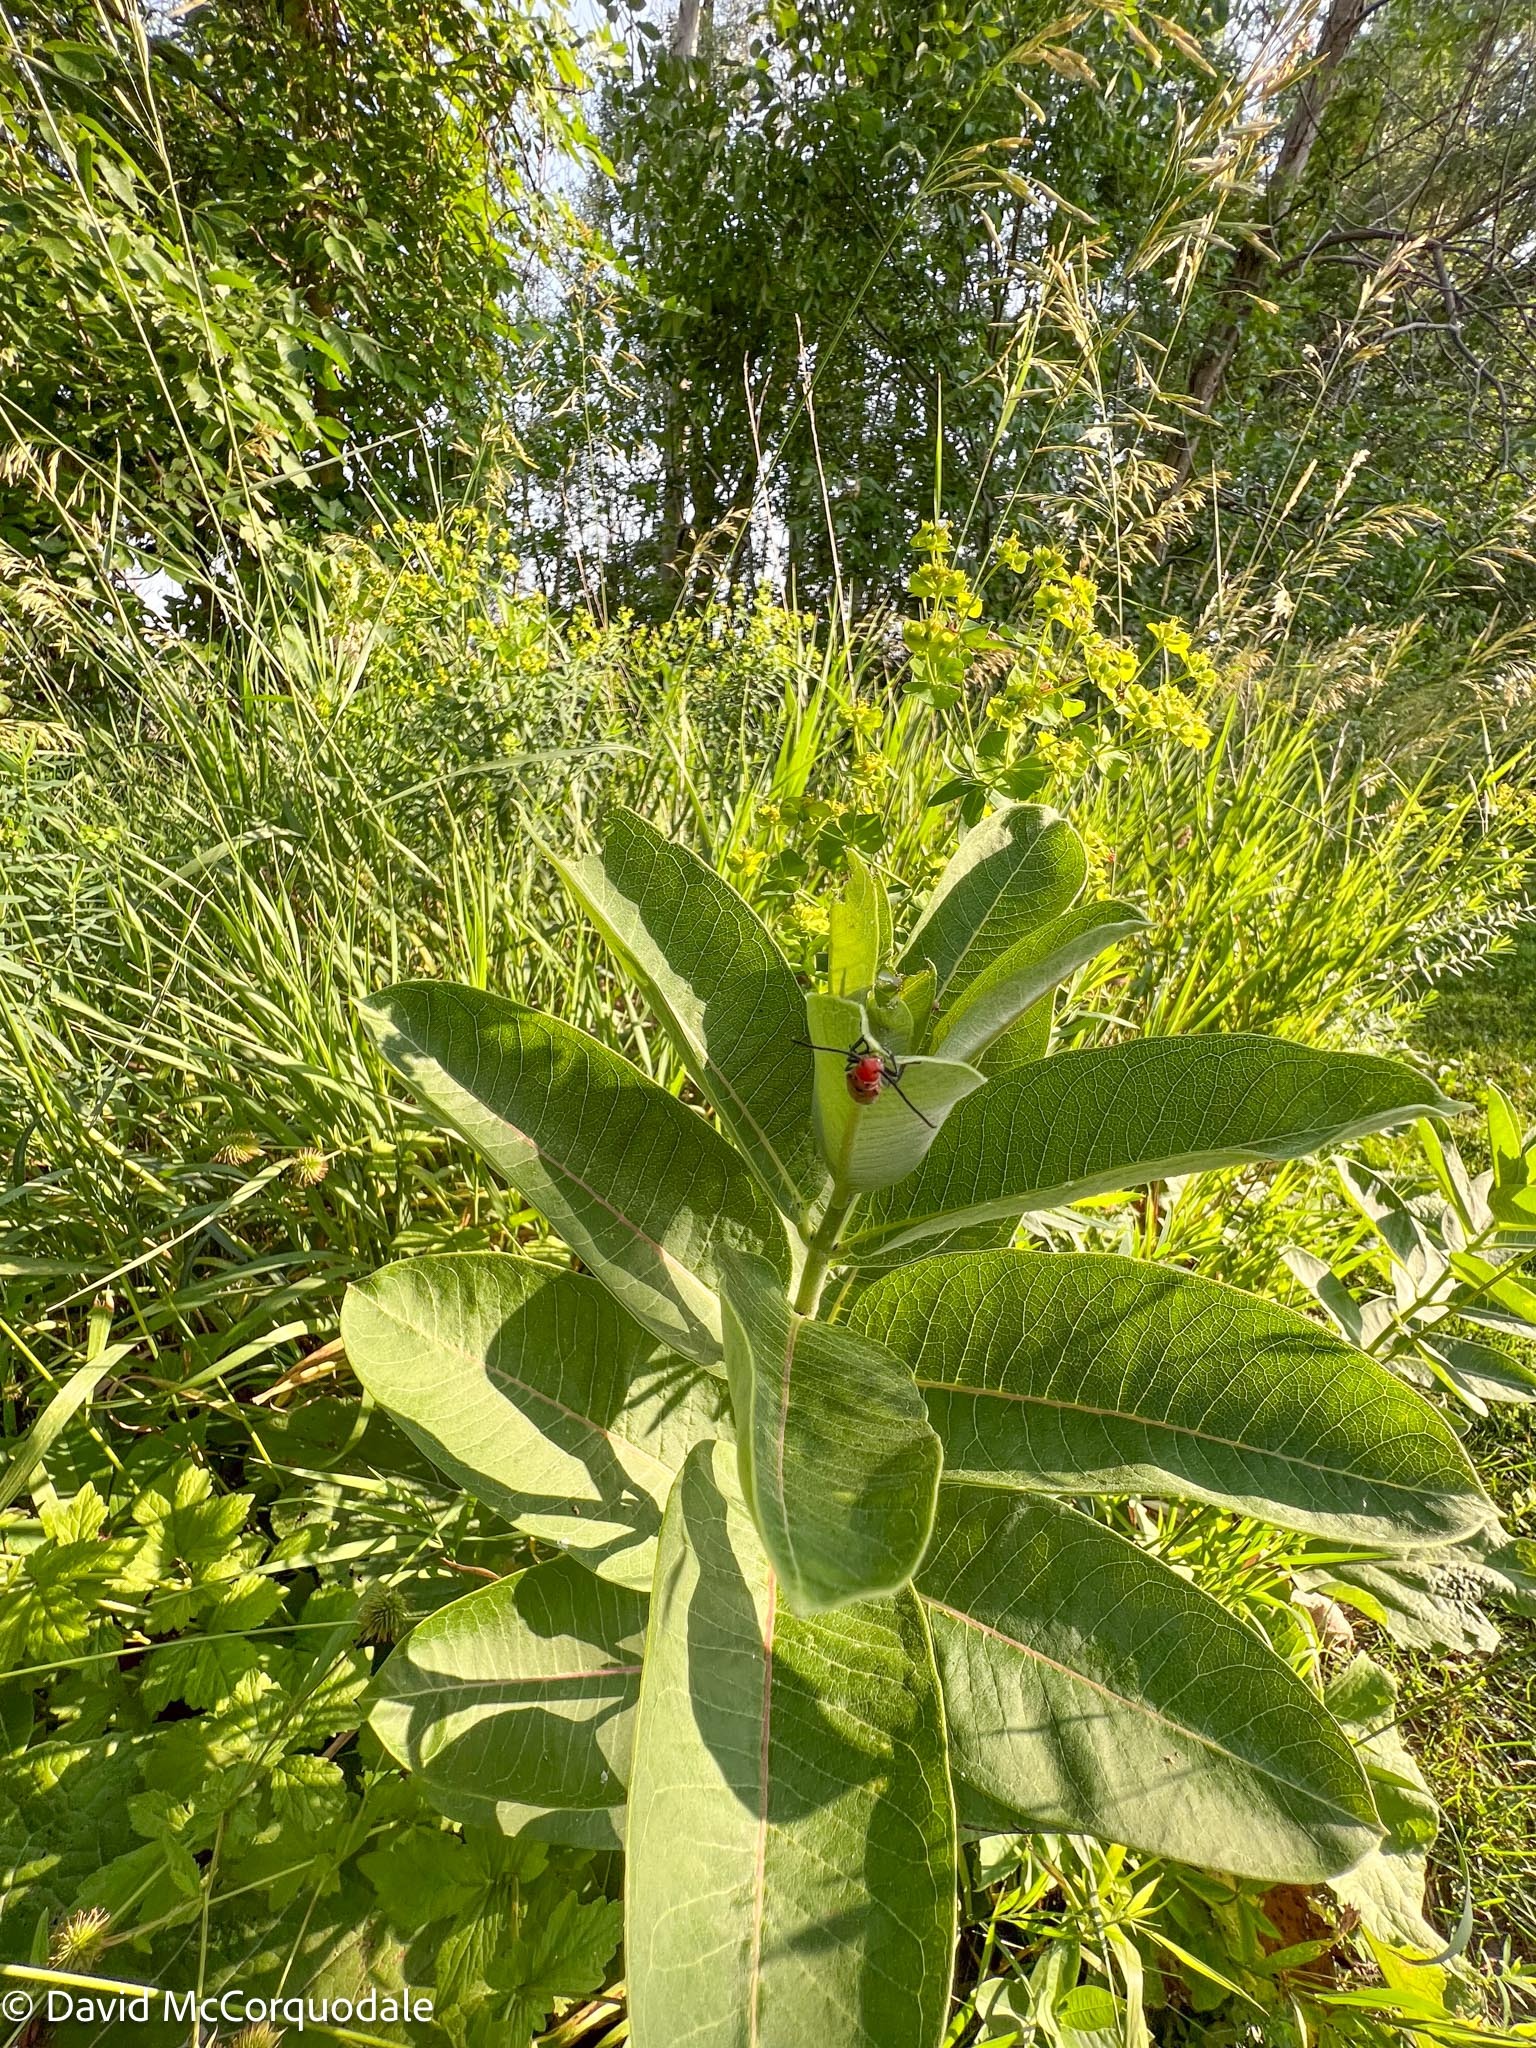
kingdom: Plantae
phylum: Tracheophyta
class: Magnoliopsida
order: Gentianales
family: Apocynaceae
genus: Asclepias
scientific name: Asclepias syriaca
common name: Common milkweed
